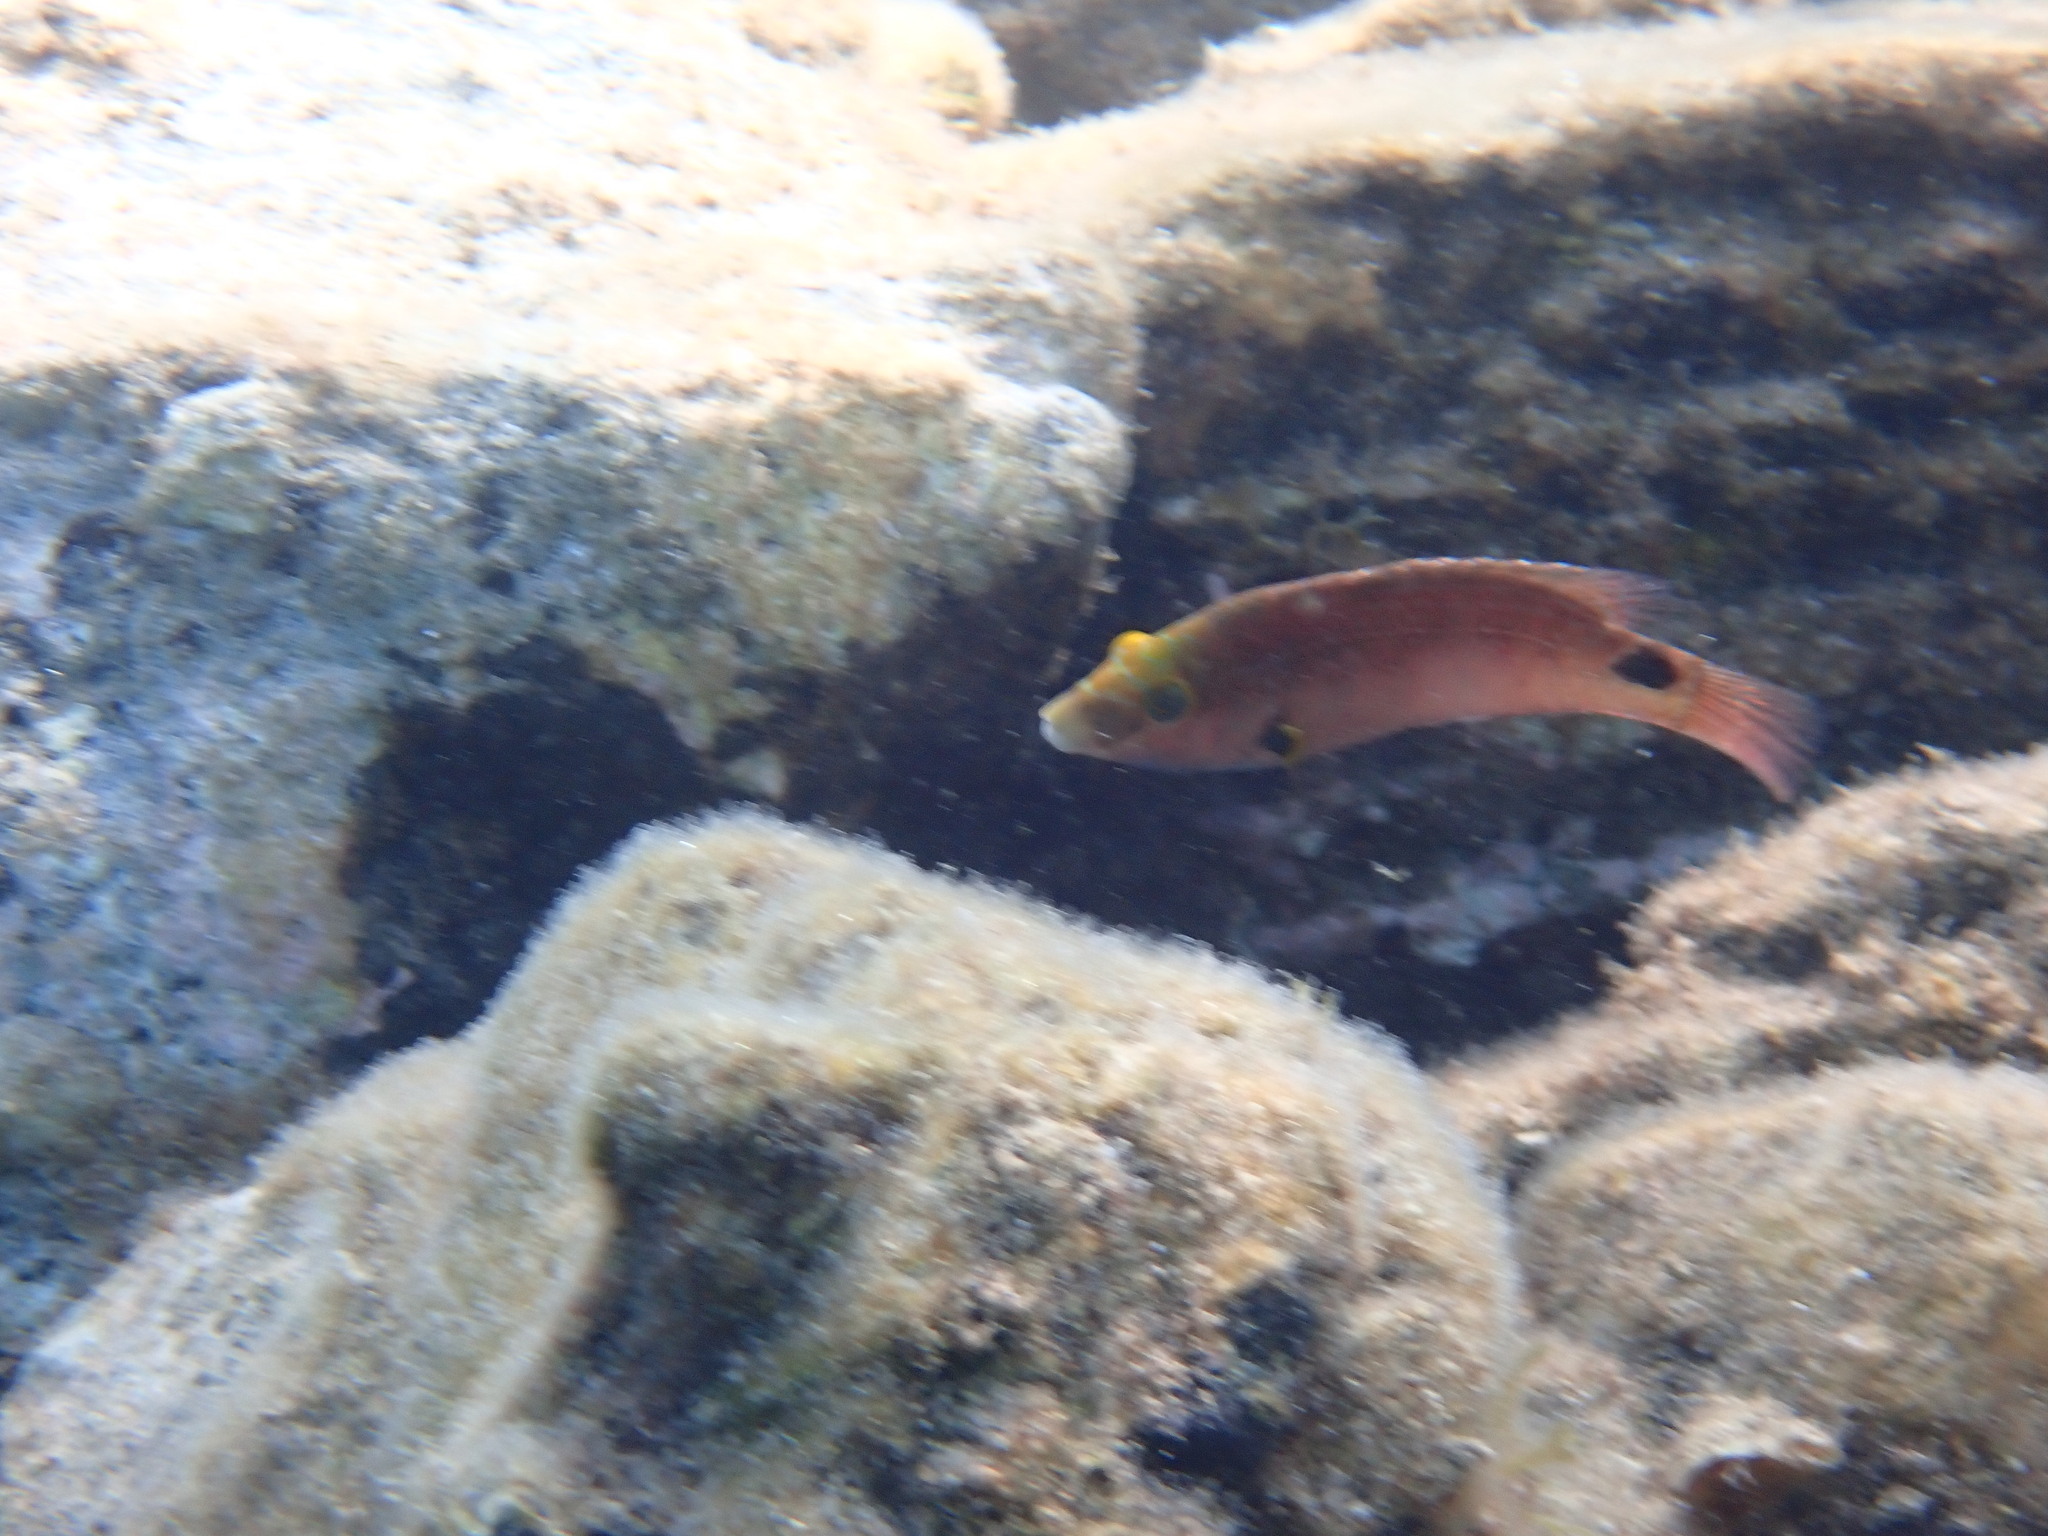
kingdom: Animalia
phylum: Chordata
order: Perciformes
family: Labridae
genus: Symphodus
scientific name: Symphodus mediterraneus
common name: Axillary wrasse
